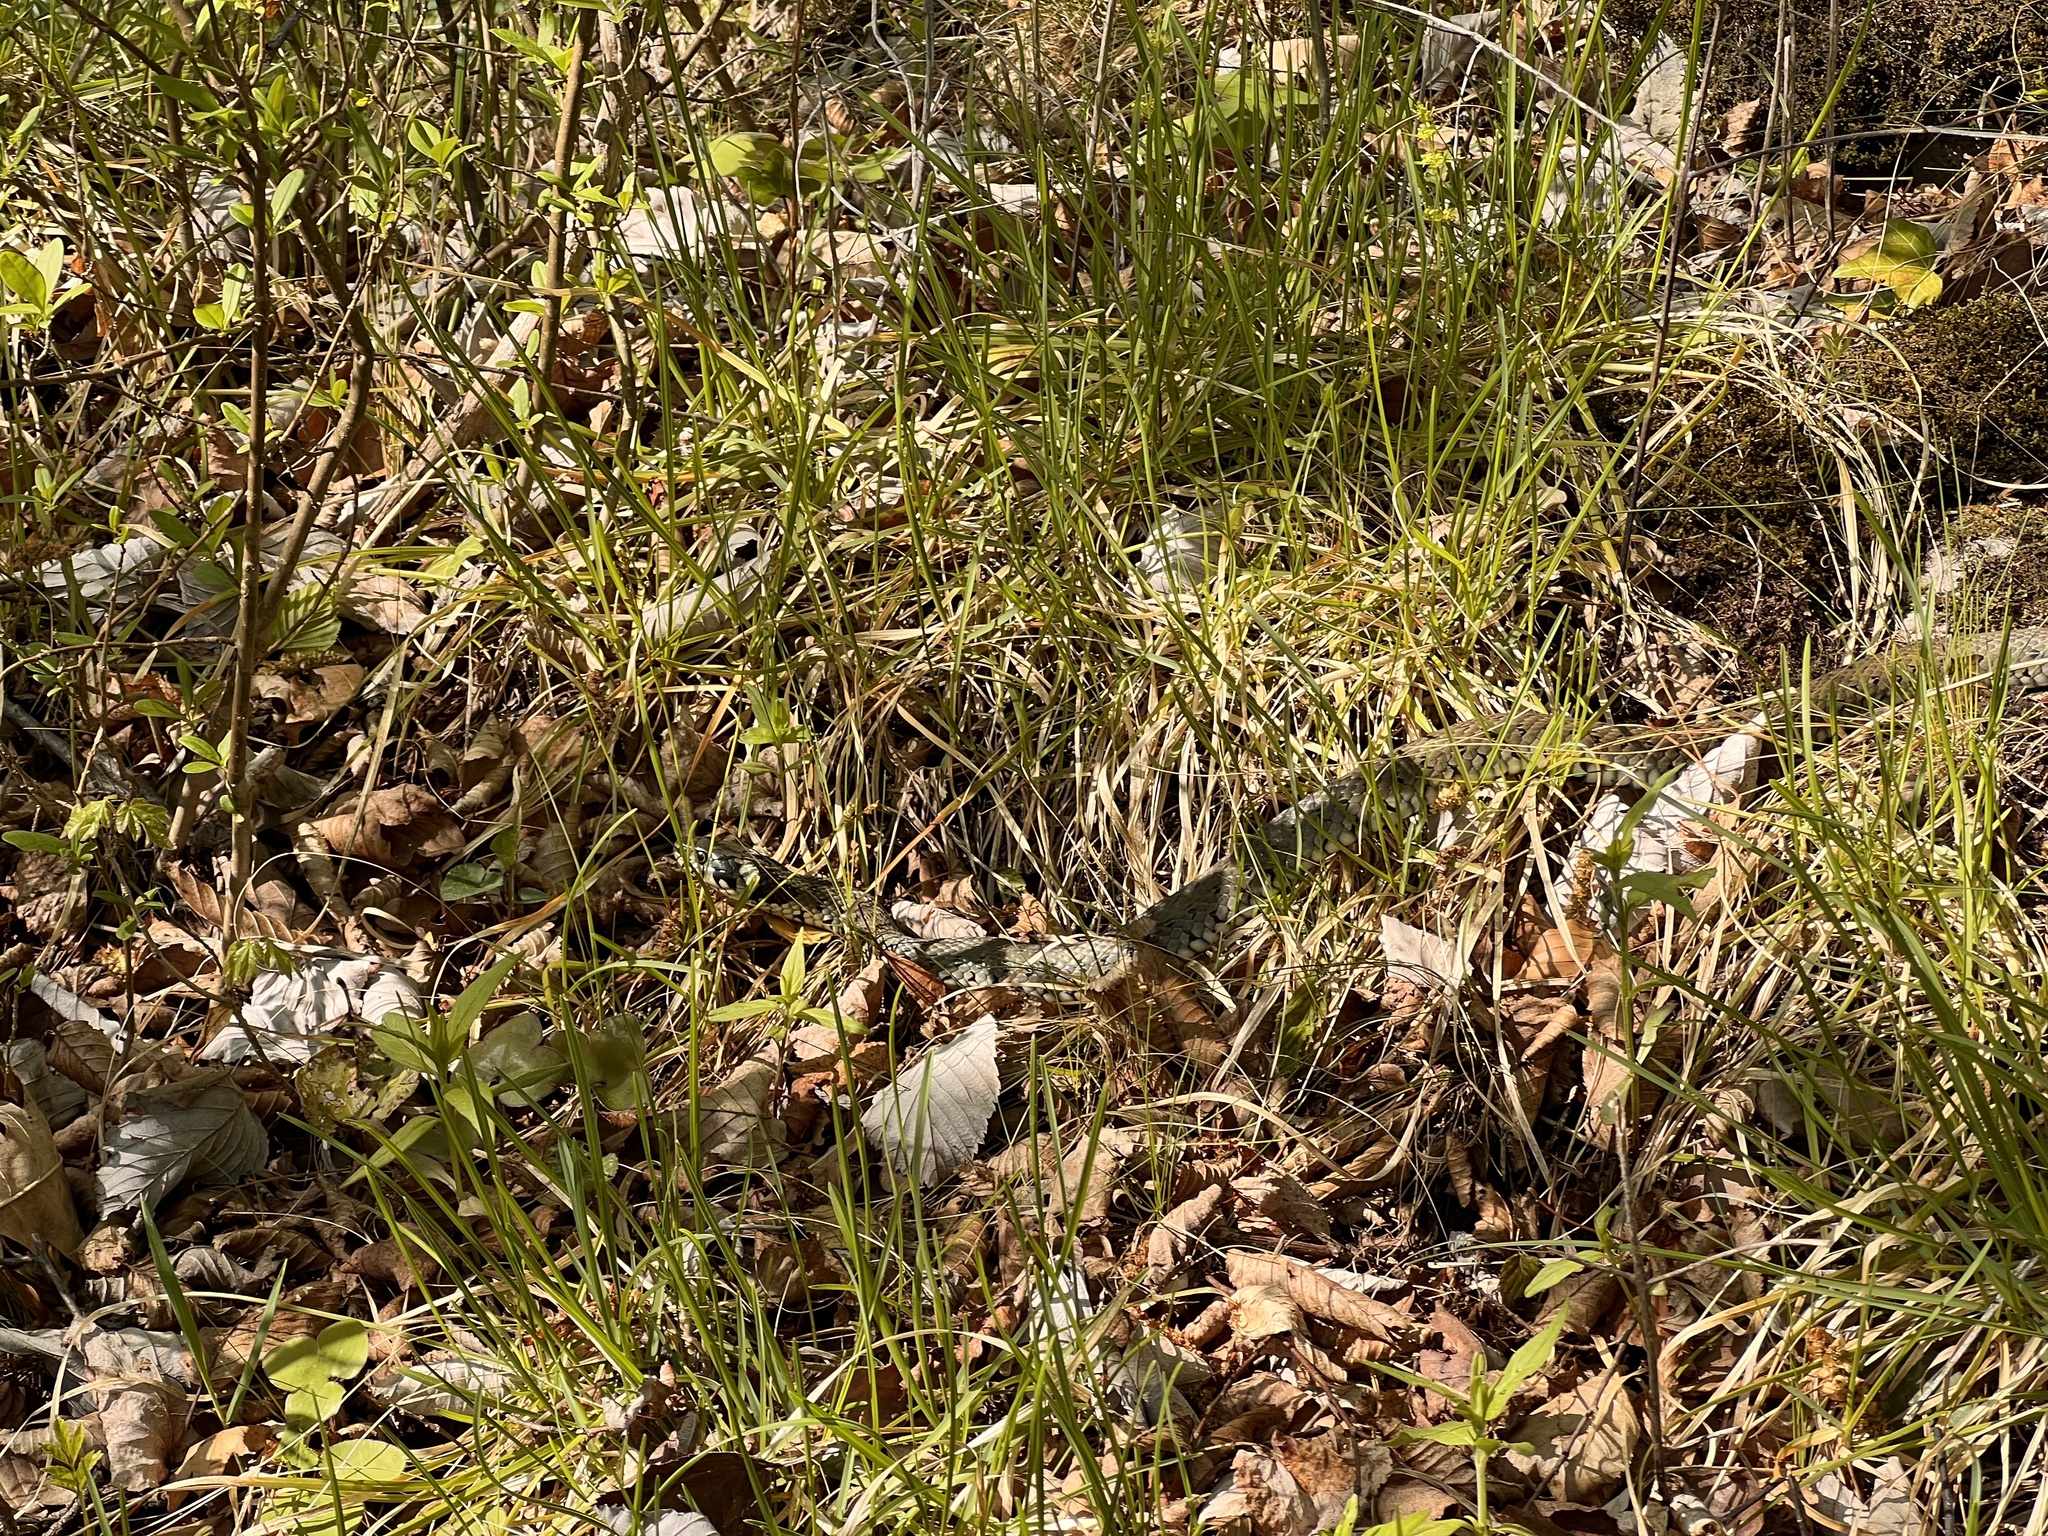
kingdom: Animalia
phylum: Chordata
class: Squamata
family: Colubridae
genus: Natrix
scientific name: Natrix natrix
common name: Grass snake
